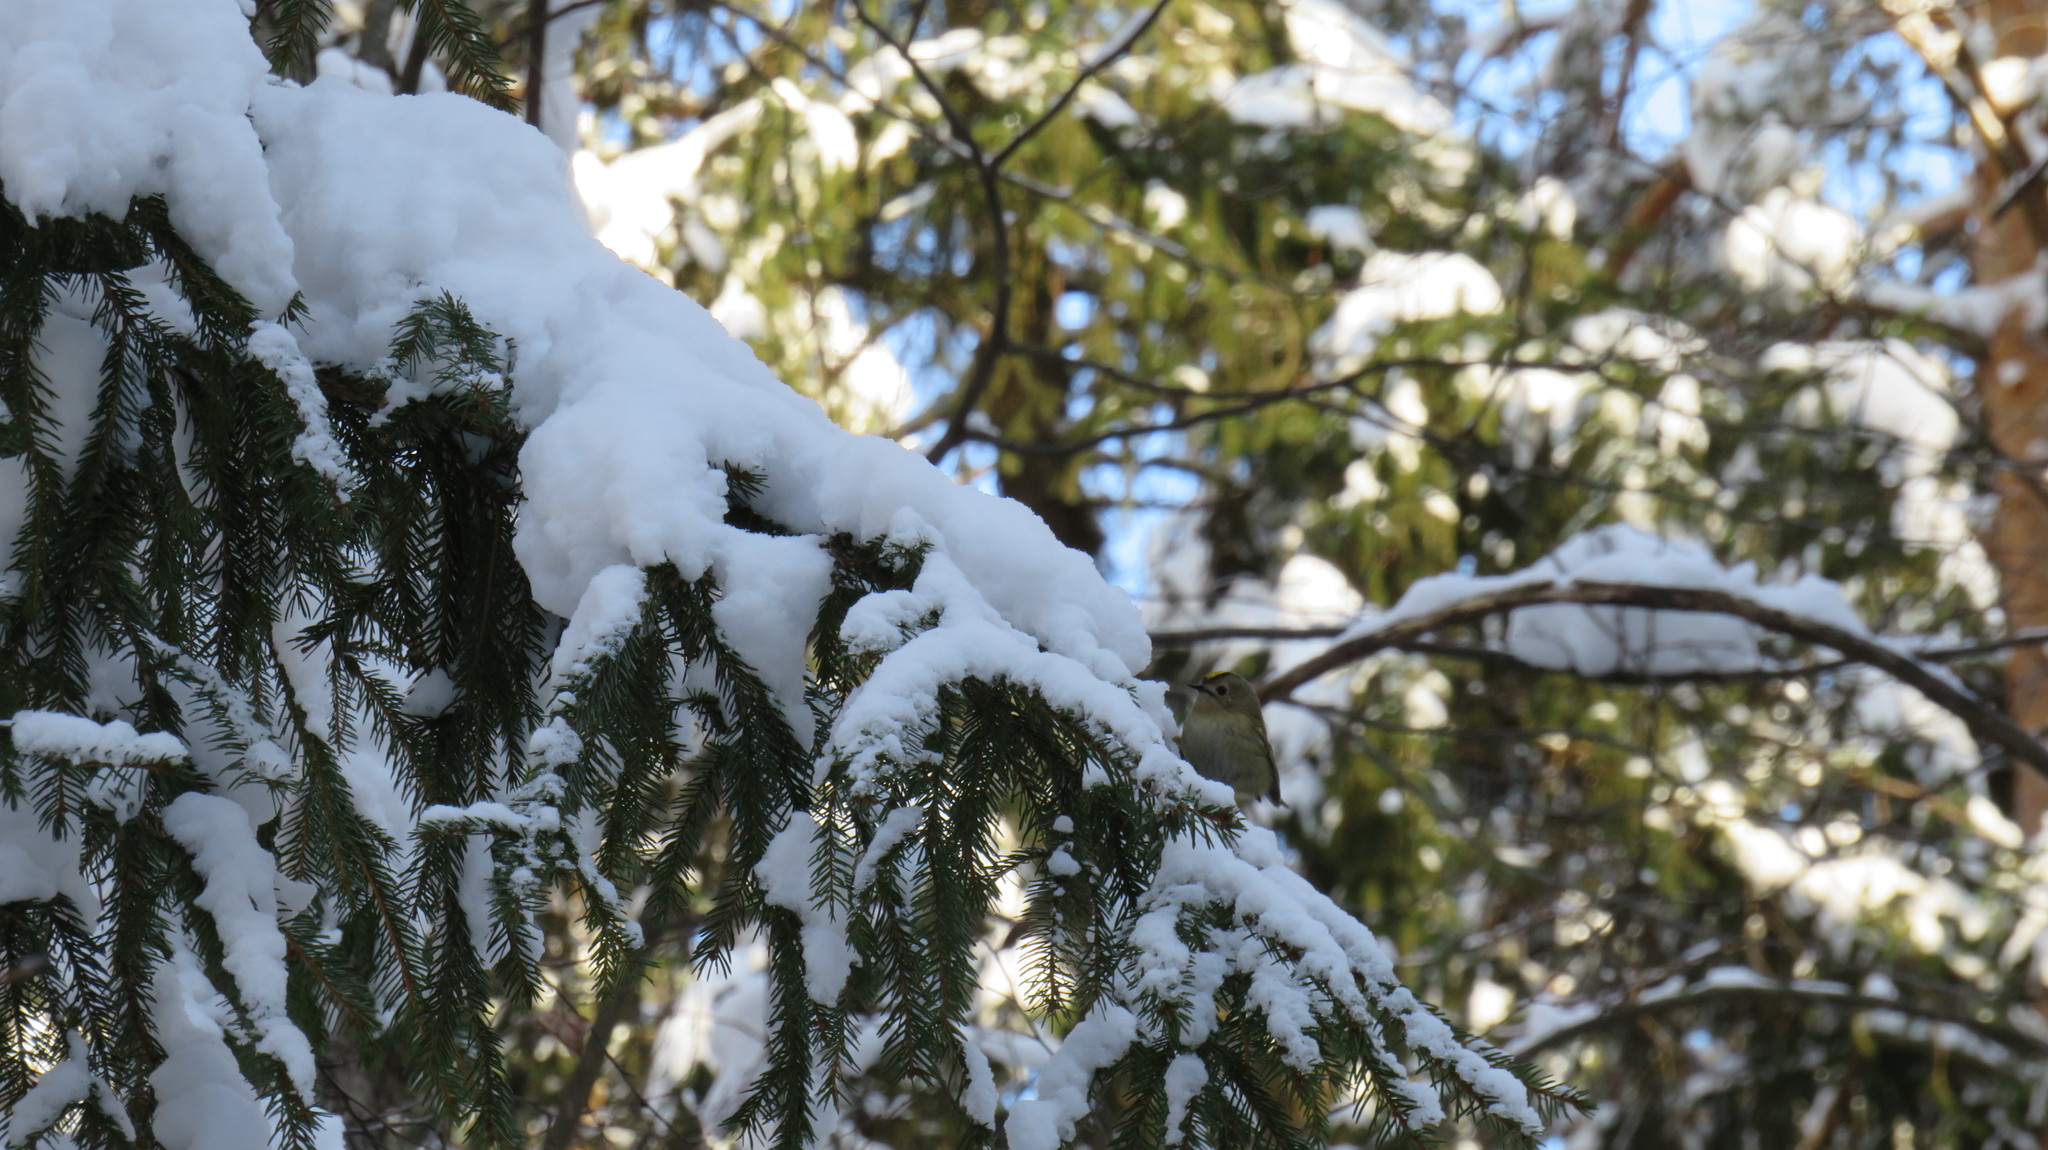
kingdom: Animalia
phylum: Chordata
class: Aves
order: Passeriformes
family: Regulidae
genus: Regulus
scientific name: Regulus regulus
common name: Goldcrest
